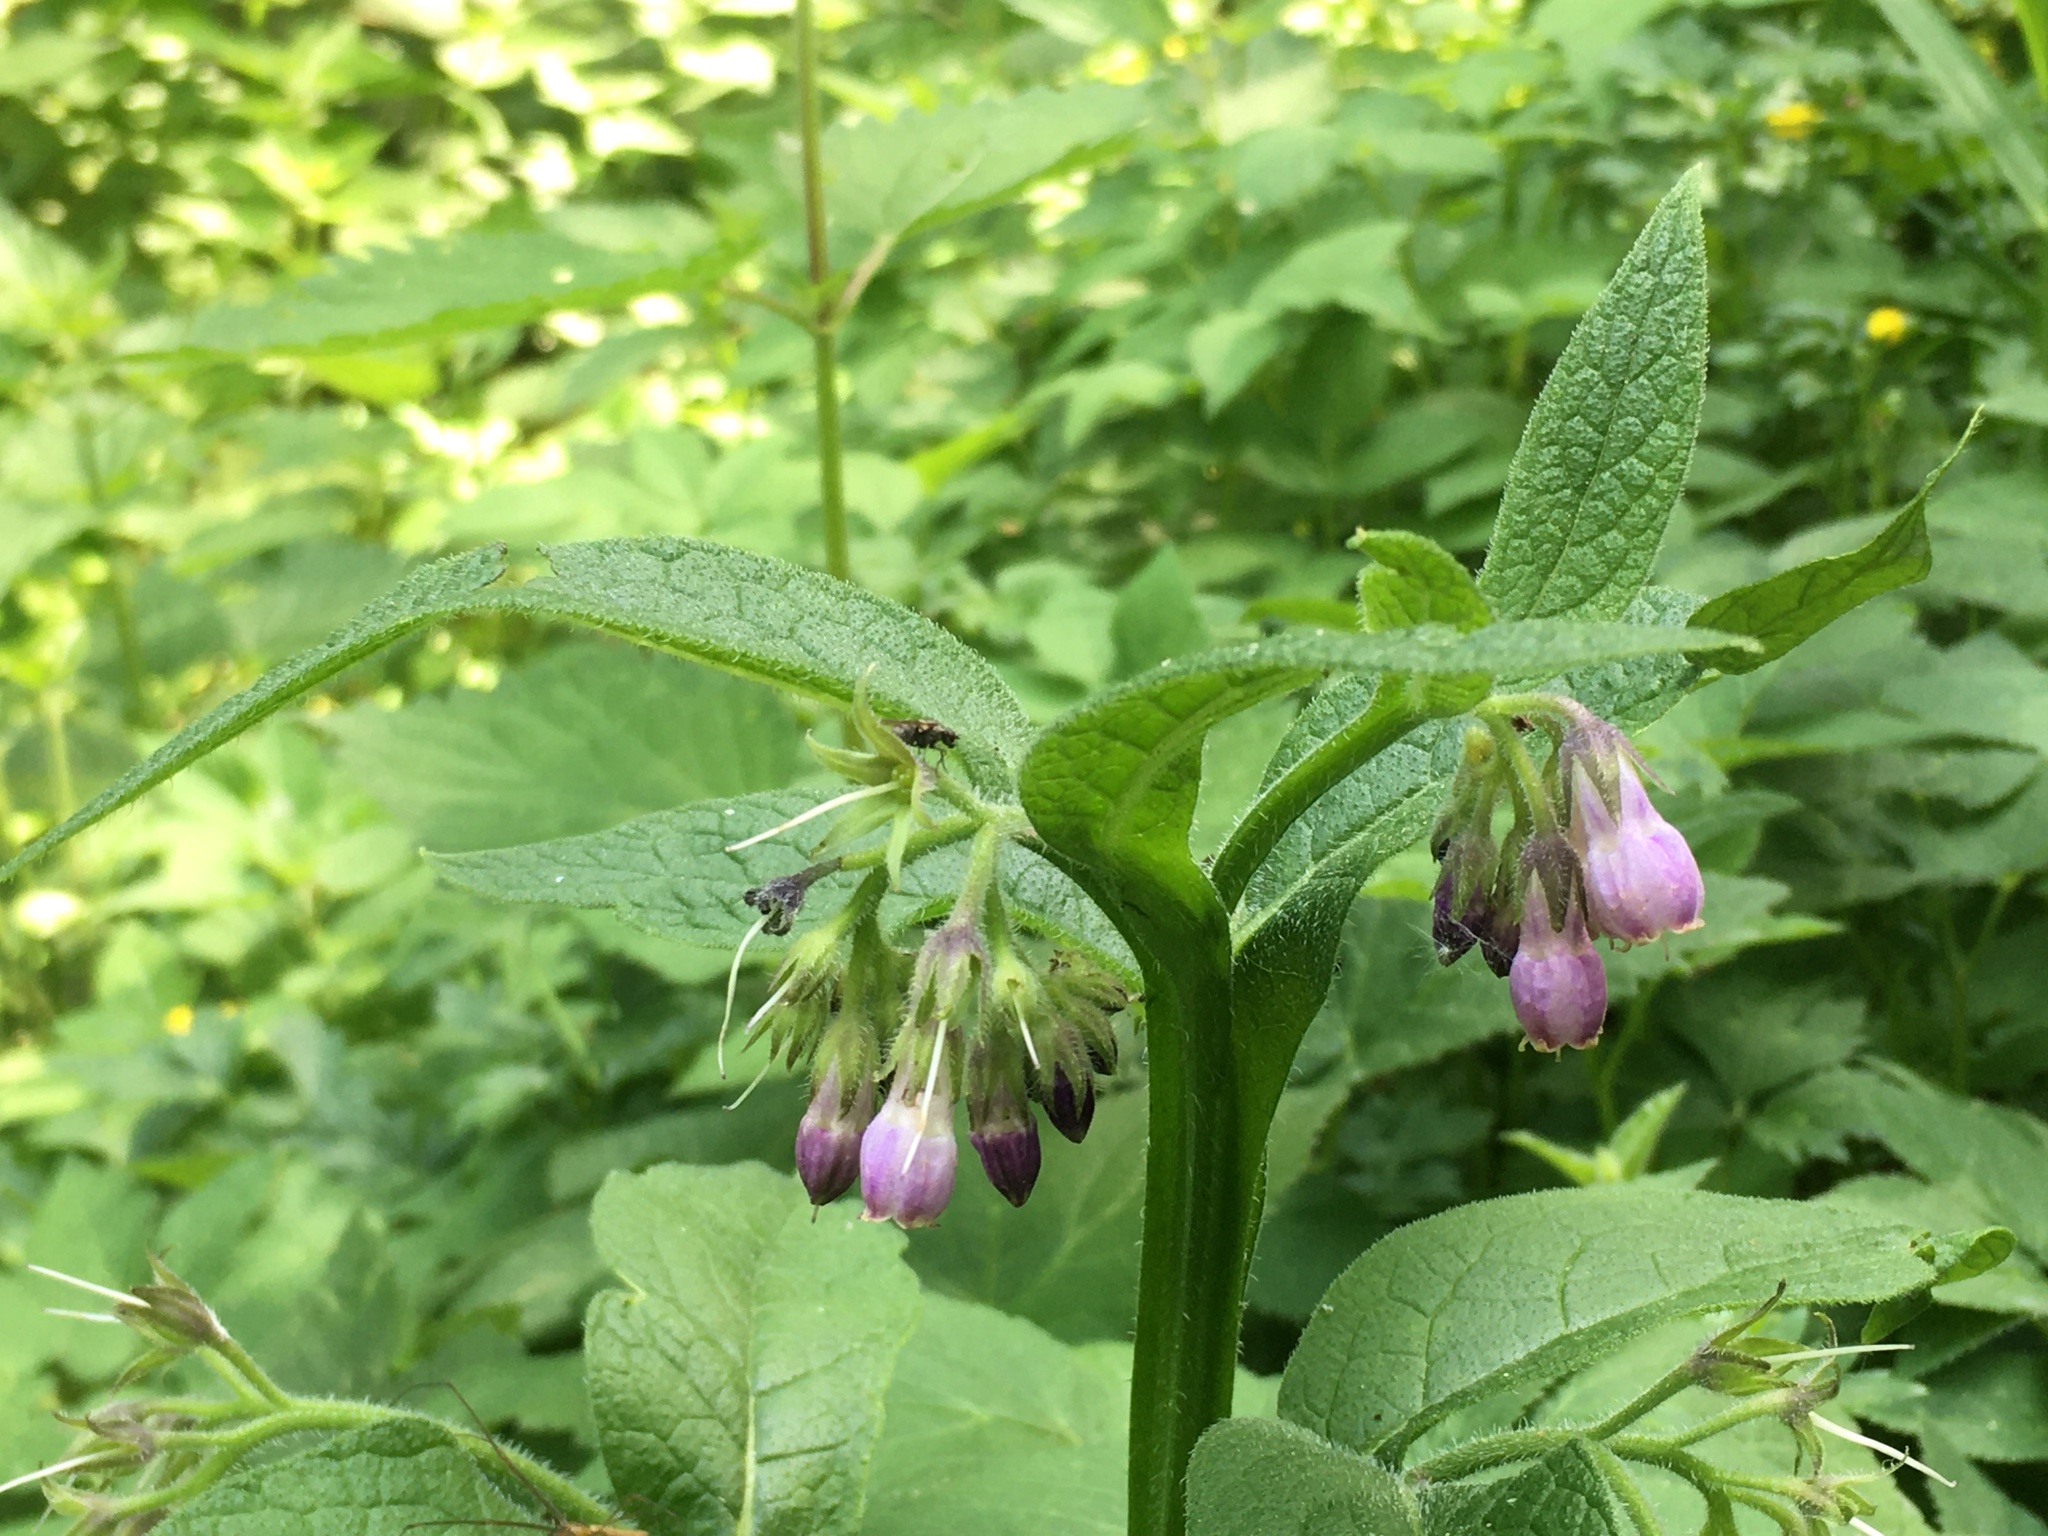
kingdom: Plantae
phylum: Tracheophyta
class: Magnoliopsida
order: Boraginales
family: Boraginaceae
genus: Symphytum
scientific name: Symphytum officinale
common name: Common comfrey
